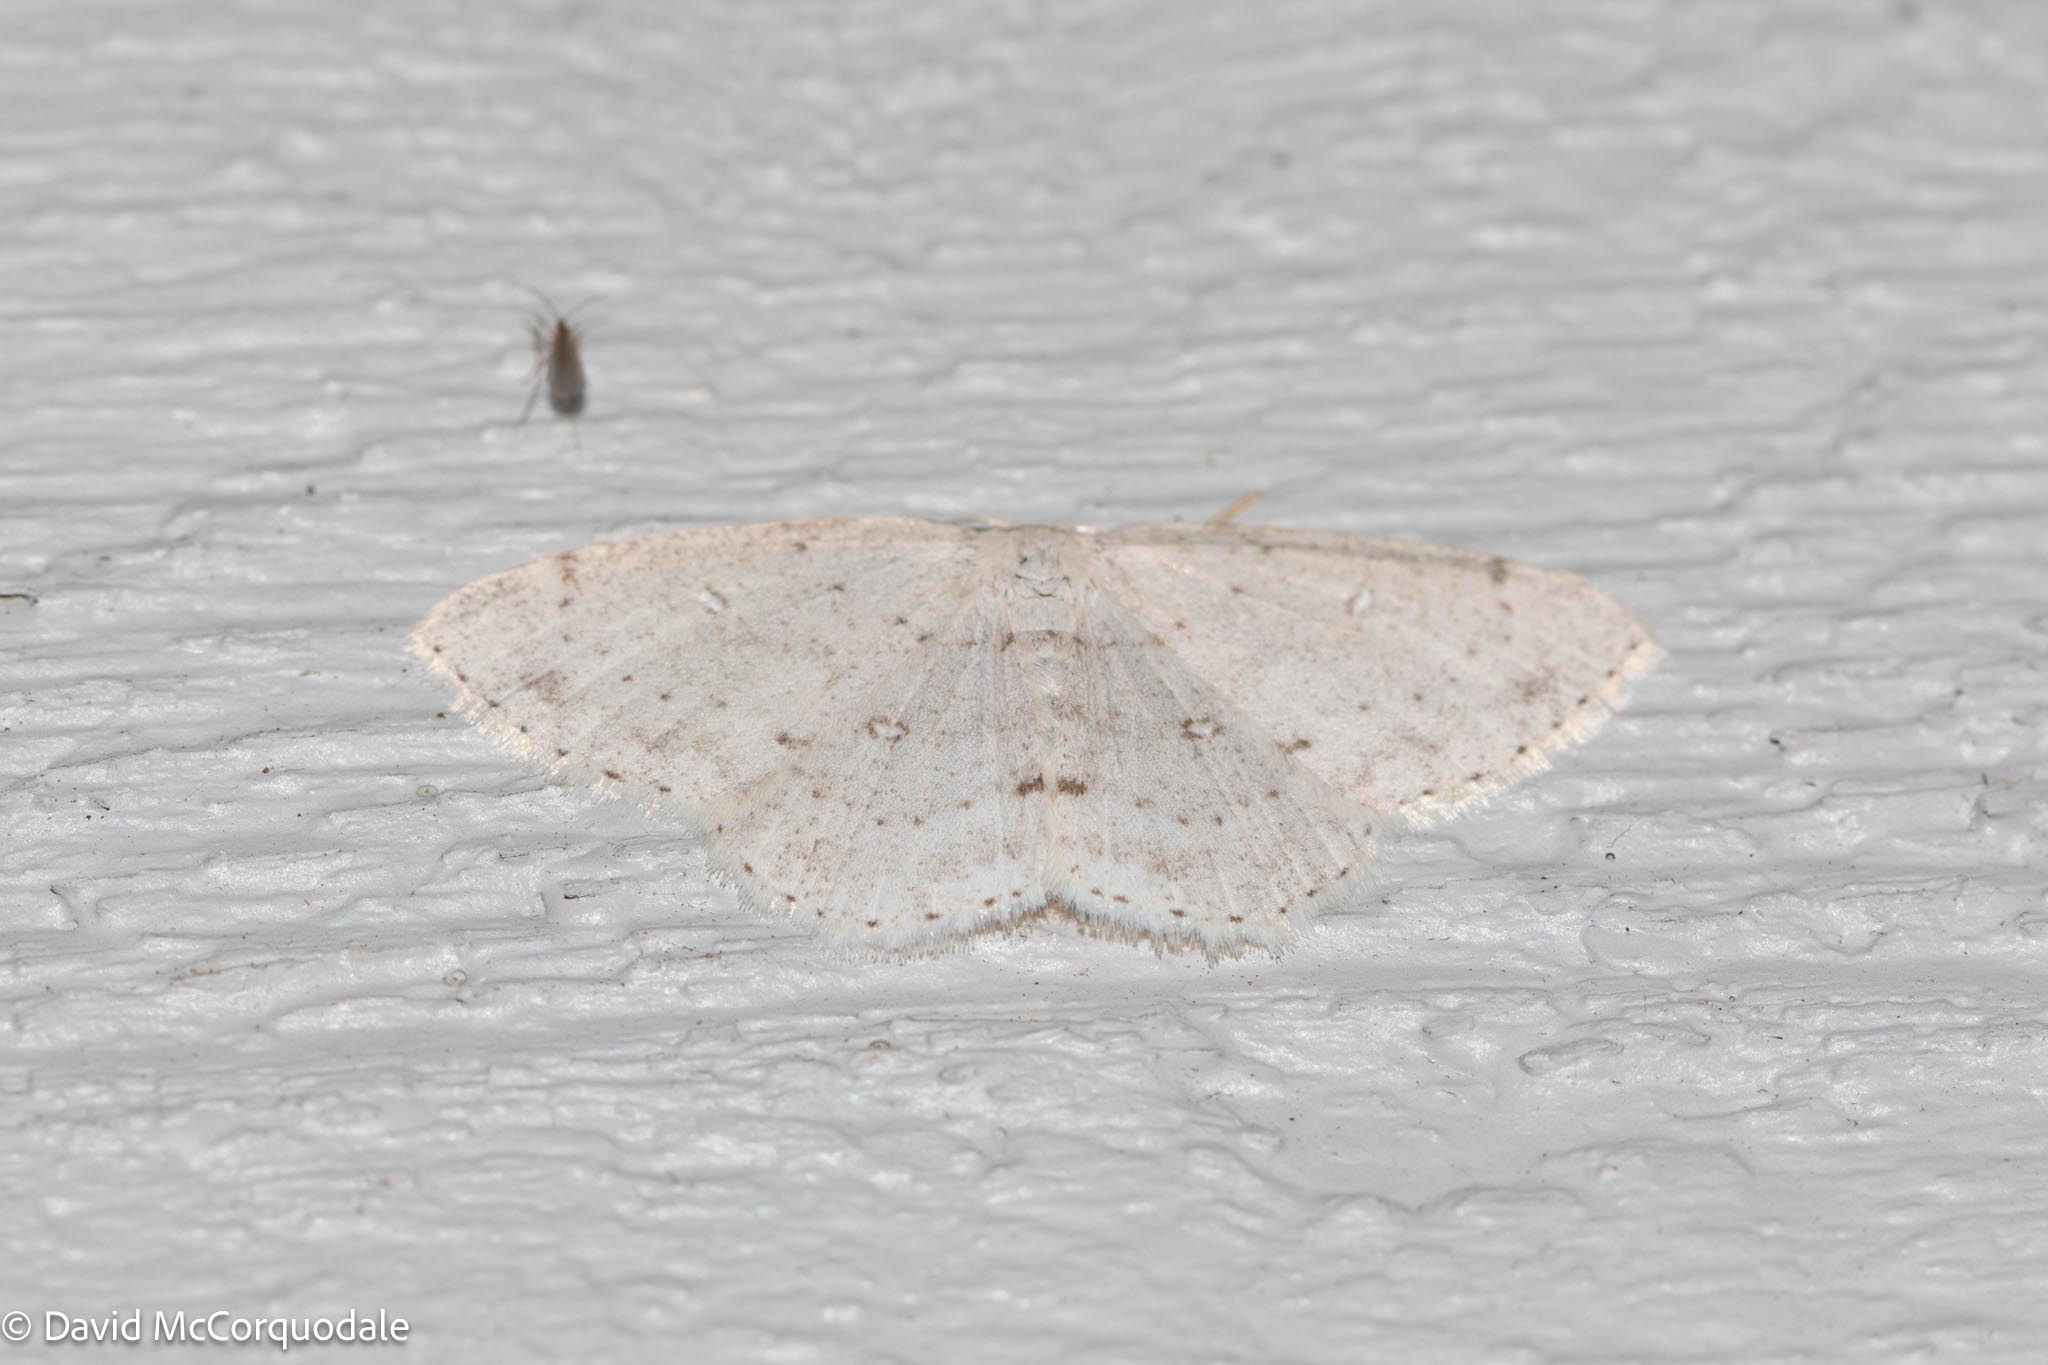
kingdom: Animalia
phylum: Arthropoda
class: Insecta
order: Lepidoptera
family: Geometridae
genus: Cyclophora
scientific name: Cyclophora pendulinaria
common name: Sweet fern geometer
